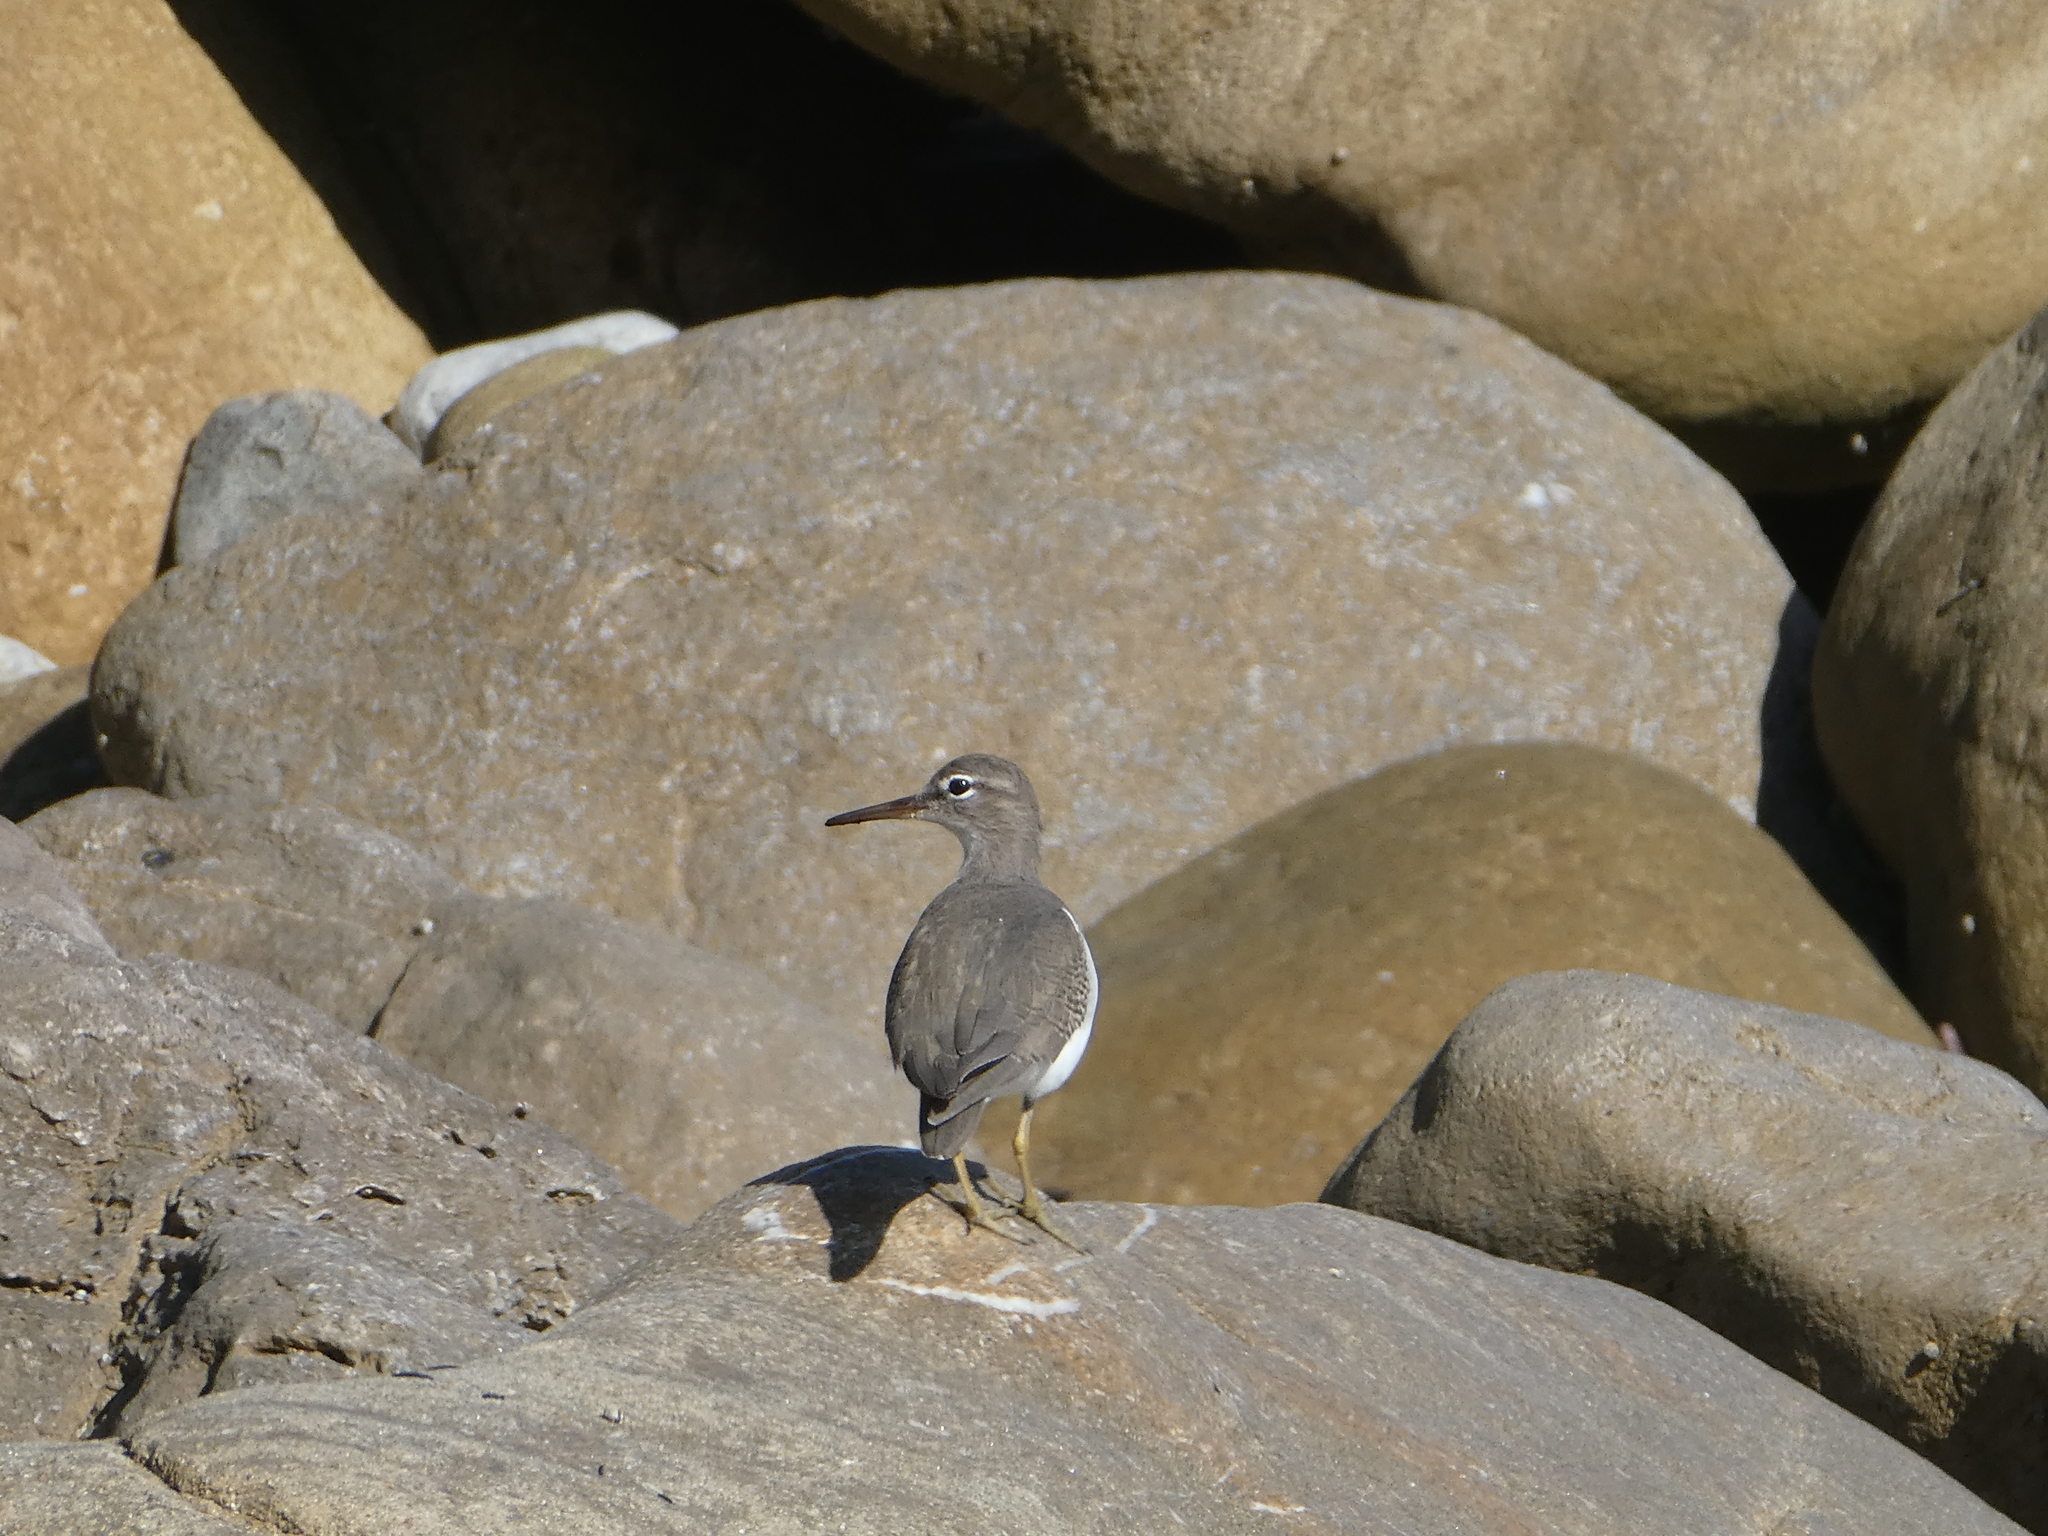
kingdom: Animalia
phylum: Chordata
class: Aves
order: Charadriiformes
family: Scolopacidae
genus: Actitis
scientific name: Actitis macularius
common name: Spotted sandpiper
